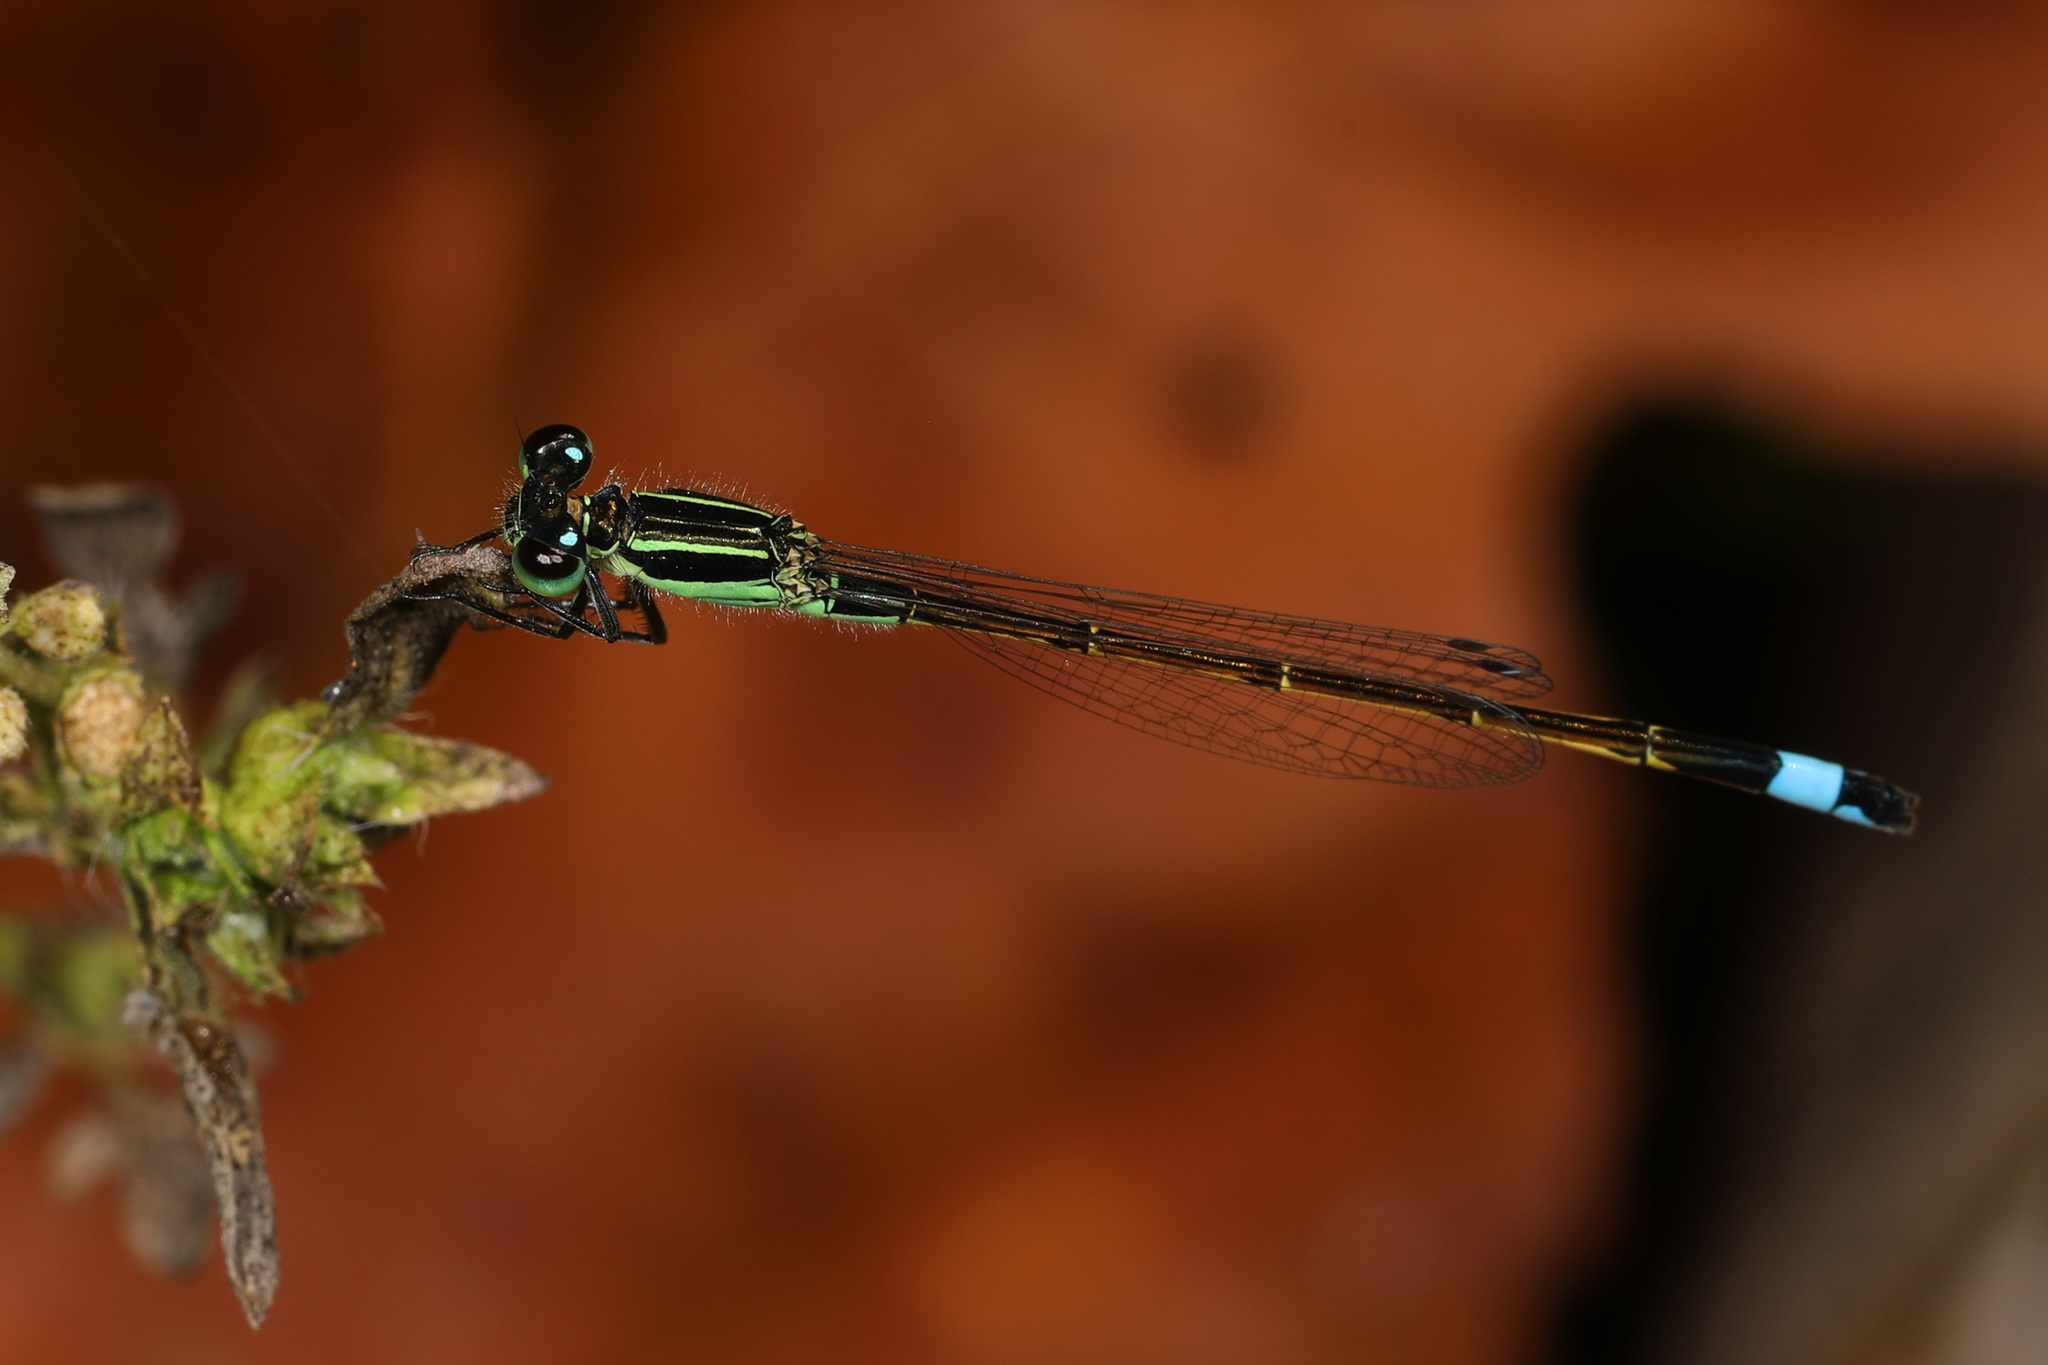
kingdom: Animalia
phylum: Arthropoda
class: Insecta
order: Odonata
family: Coenagrionidae
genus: Ischnura
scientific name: Ischnura ramburii
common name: Rambur's forktail
